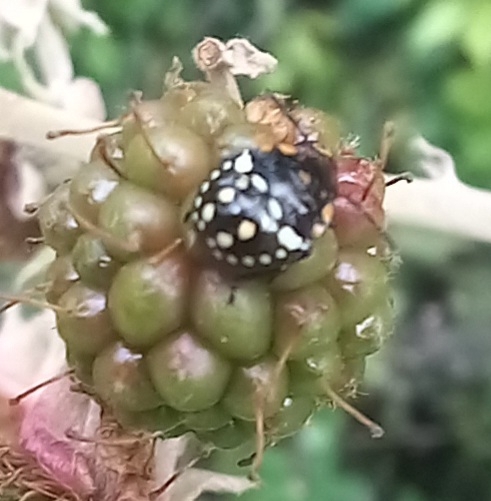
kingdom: Animalia
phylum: Arthropoda
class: Insecta
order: Hemiptera
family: Pentatomidae
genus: Nezara
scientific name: Nezara viridula
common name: Southern green stink bug
